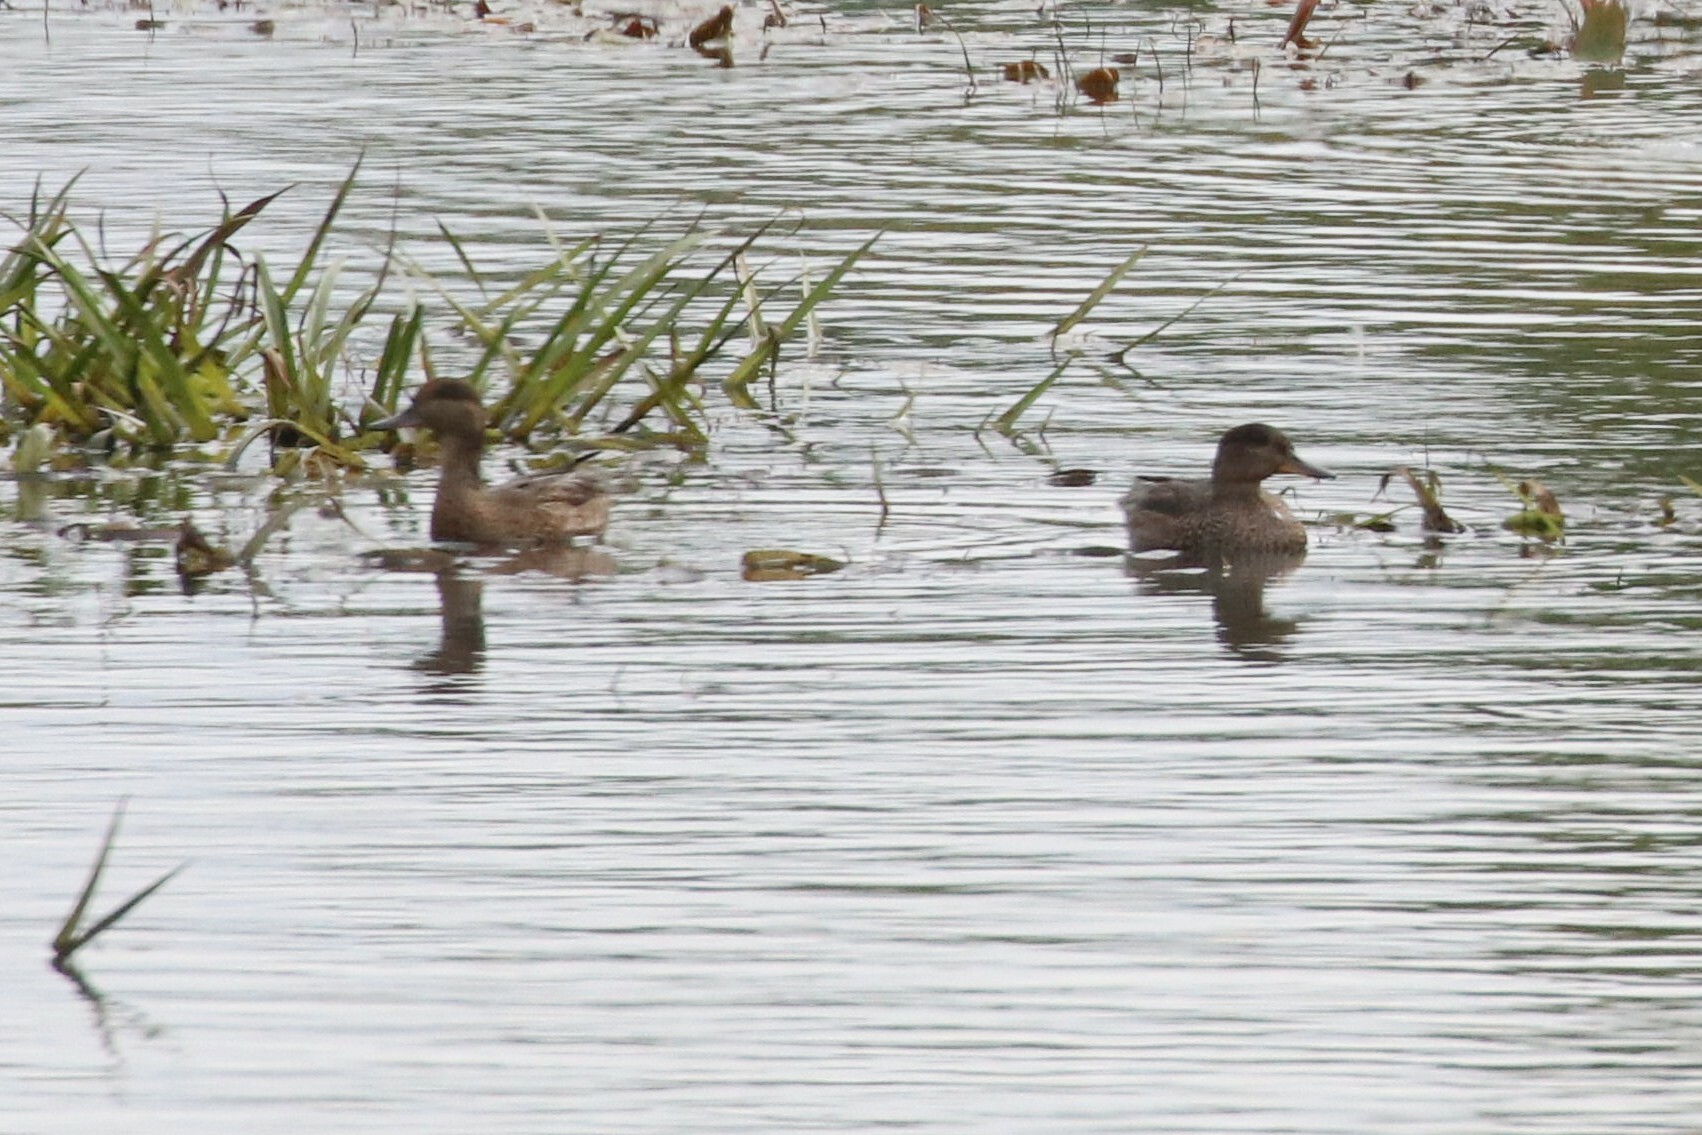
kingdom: Animalia
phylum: Chordata
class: Aves
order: Anseriformes
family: Anatidae
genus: Anas
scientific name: Anas crecca
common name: Eurasian teal
